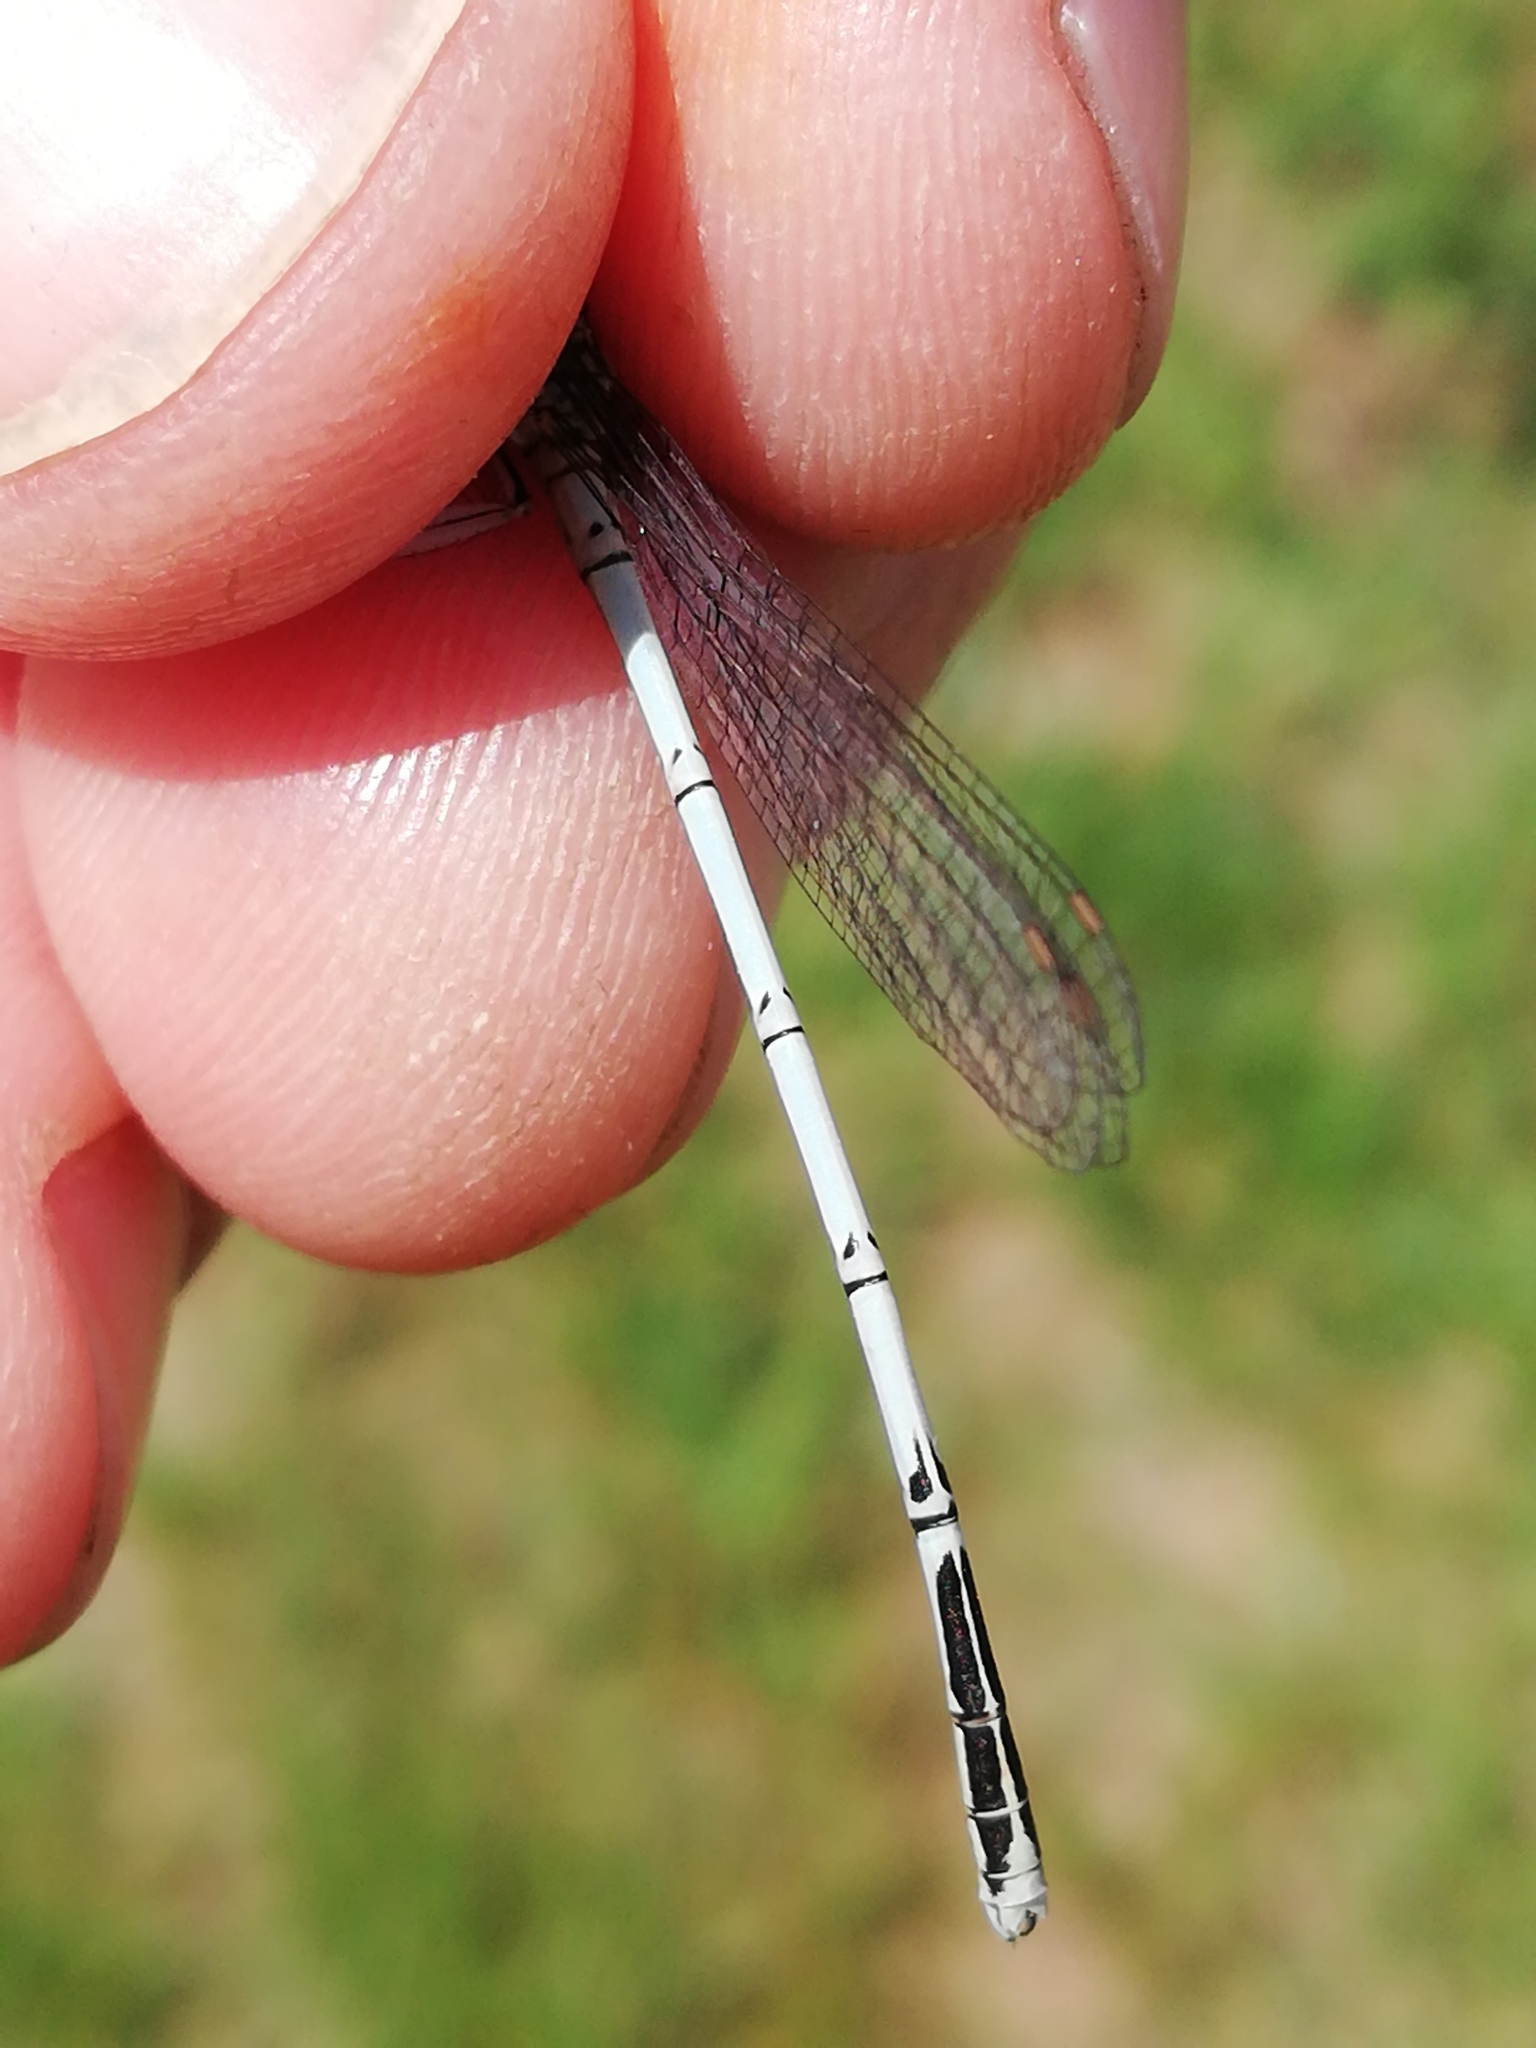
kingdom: Animalia
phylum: Arthropoda
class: Insecta
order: Odonata
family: Platycnemididae
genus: Platycnemis
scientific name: Platycnemis pennipes
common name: White-legged damselfly
